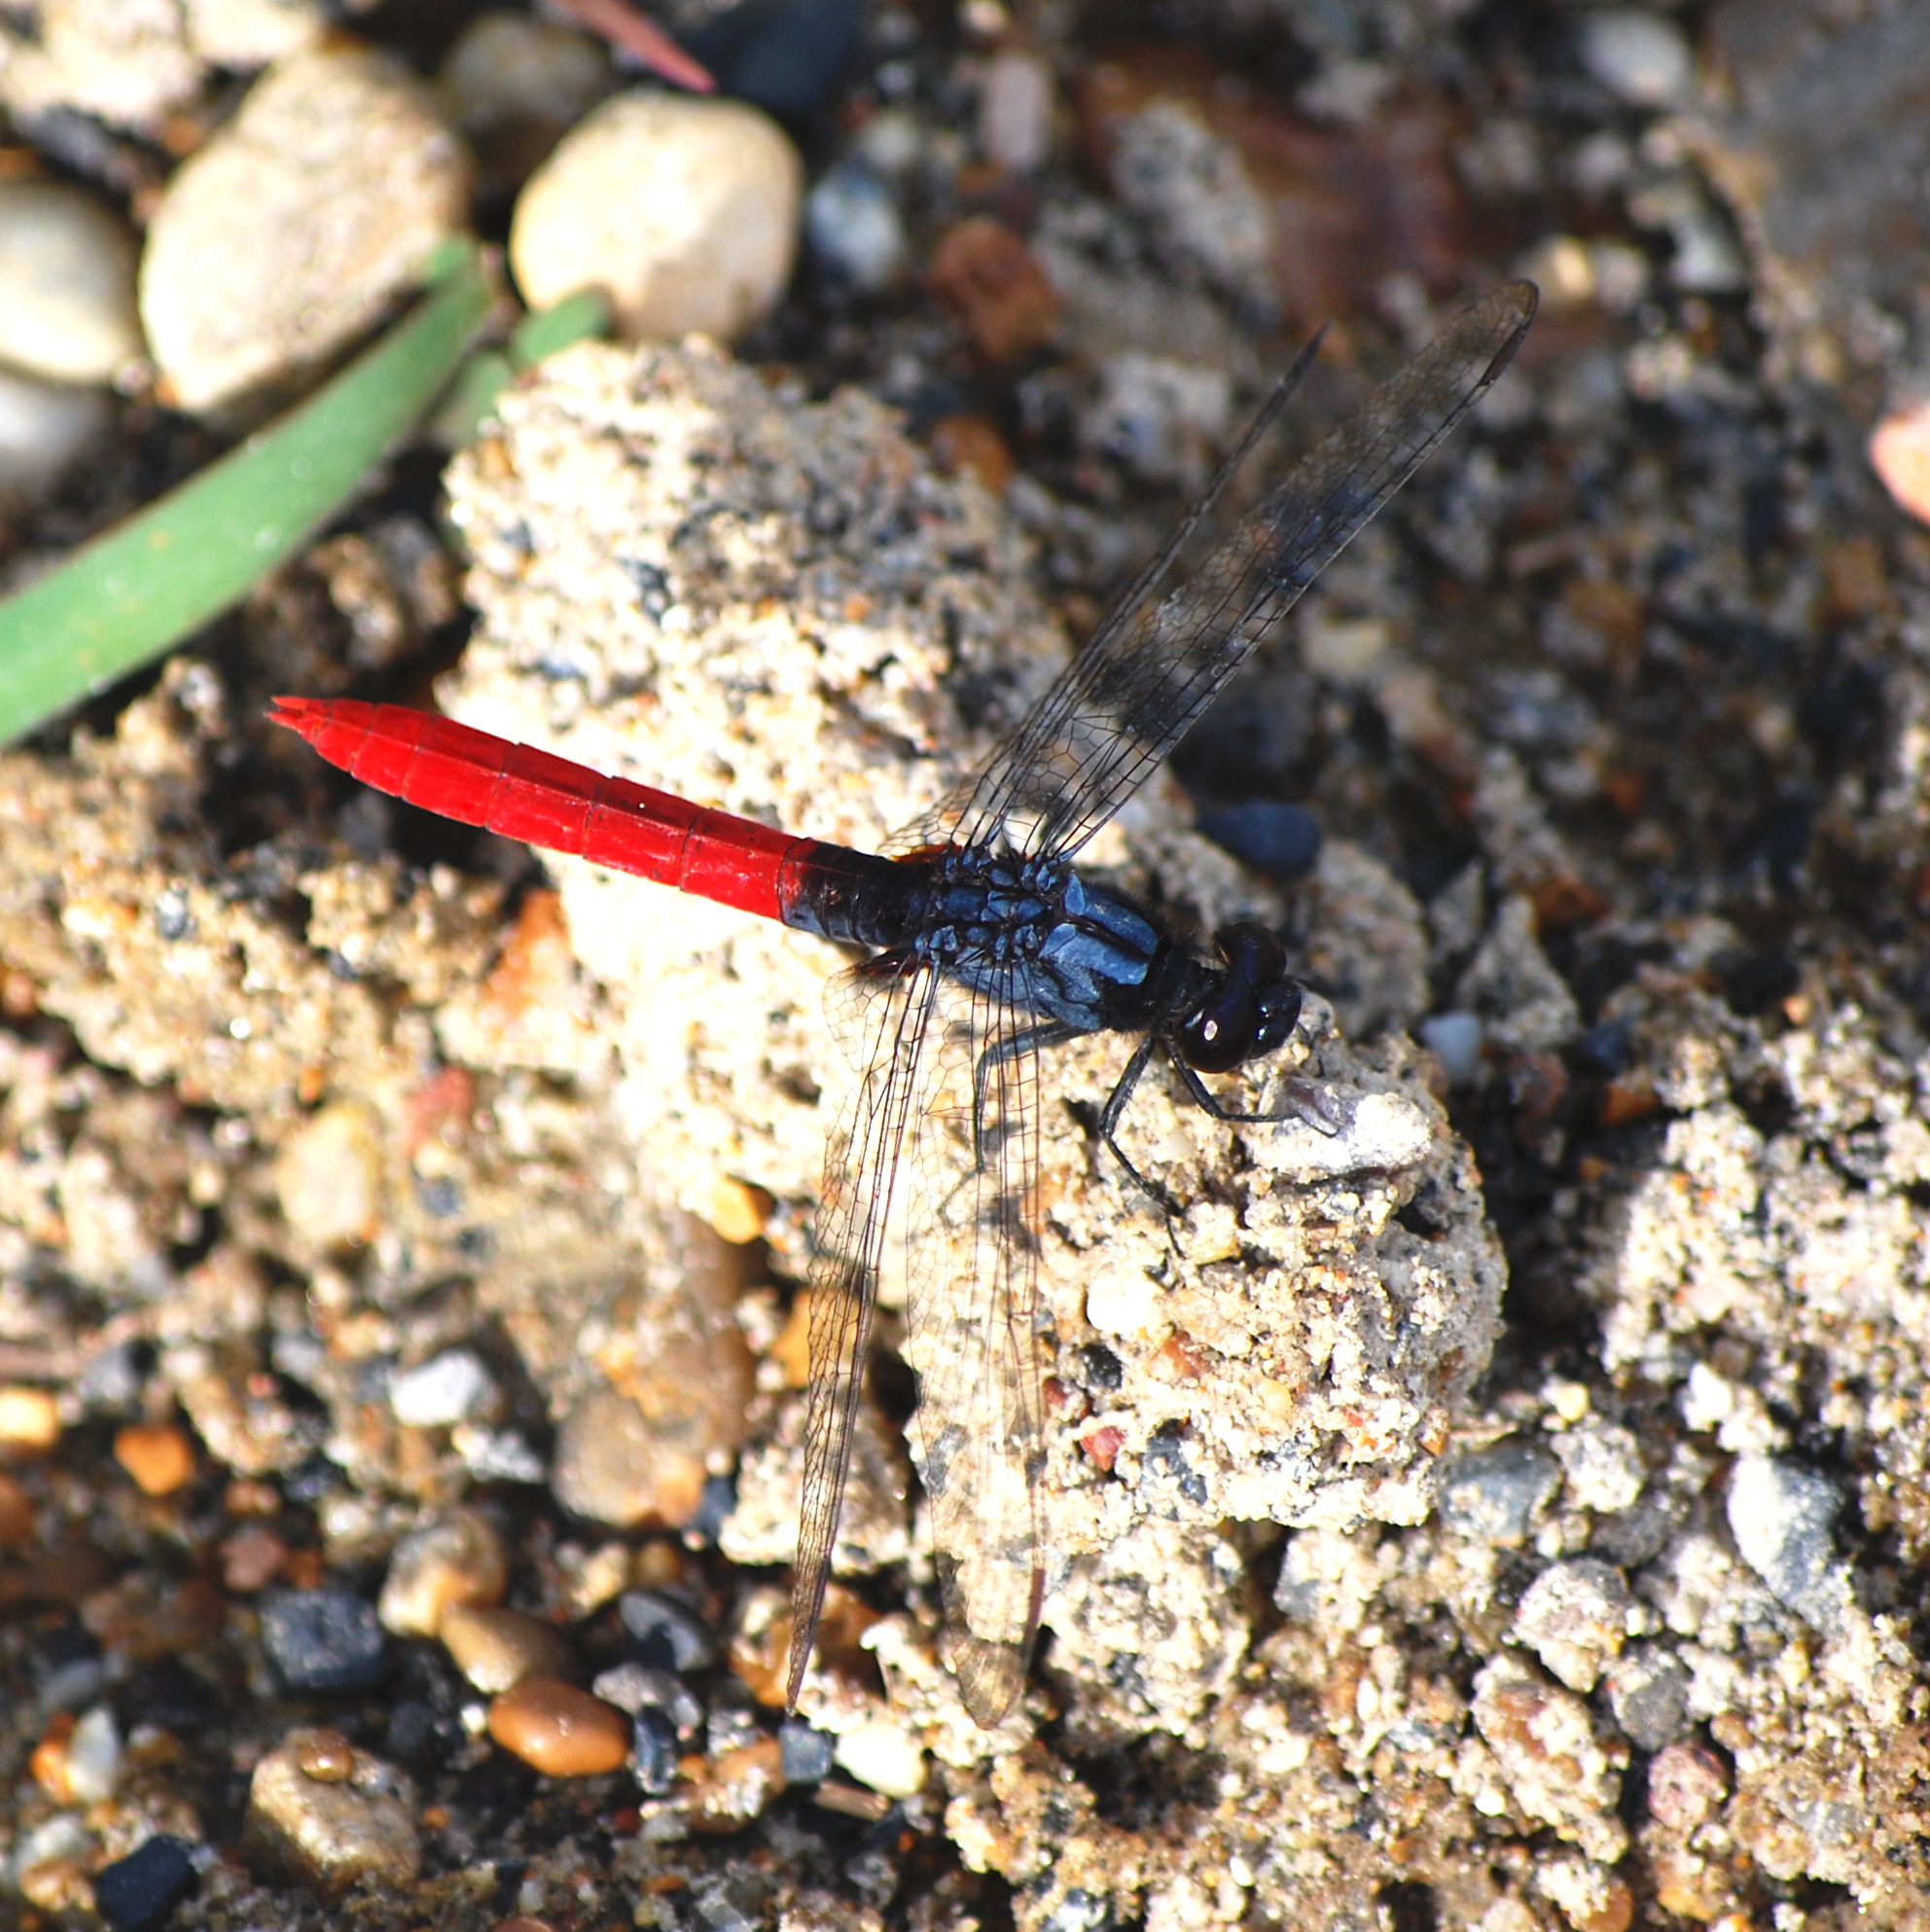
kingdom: Animalia
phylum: Arthropoda
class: Insecta
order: Odonata
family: Libellulidae
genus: Erythemis
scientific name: Erythemis peruviana
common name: Flame-tailed pondhawk
